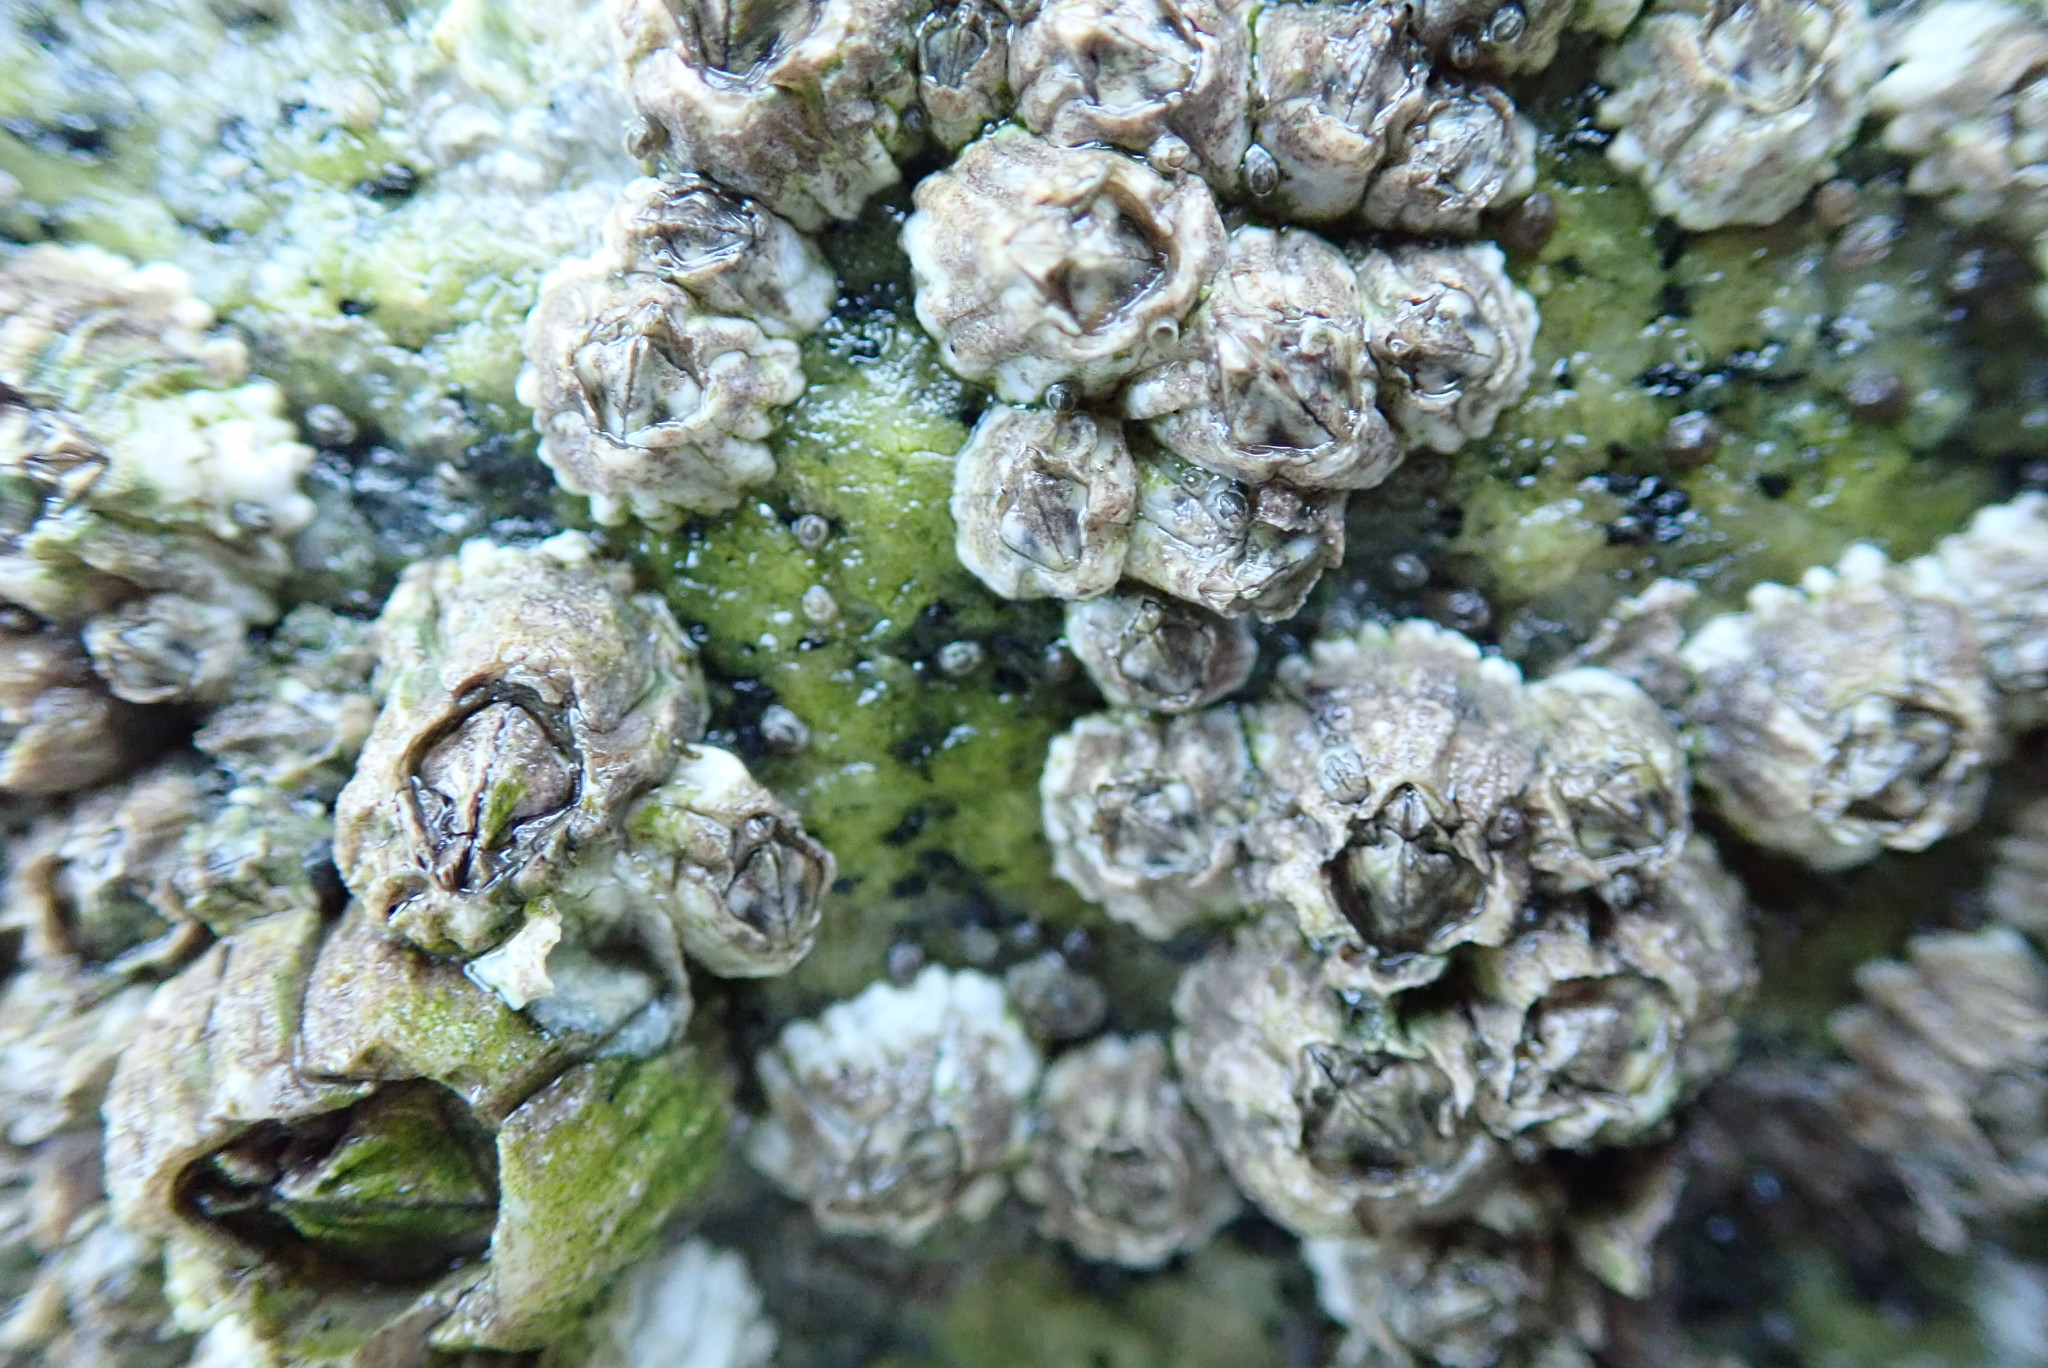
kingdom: Animalia
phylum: Arthropoda
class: Maxillopoda
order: Sessilia
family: Balanidae
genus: Balanus
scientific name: Balanus glandula
